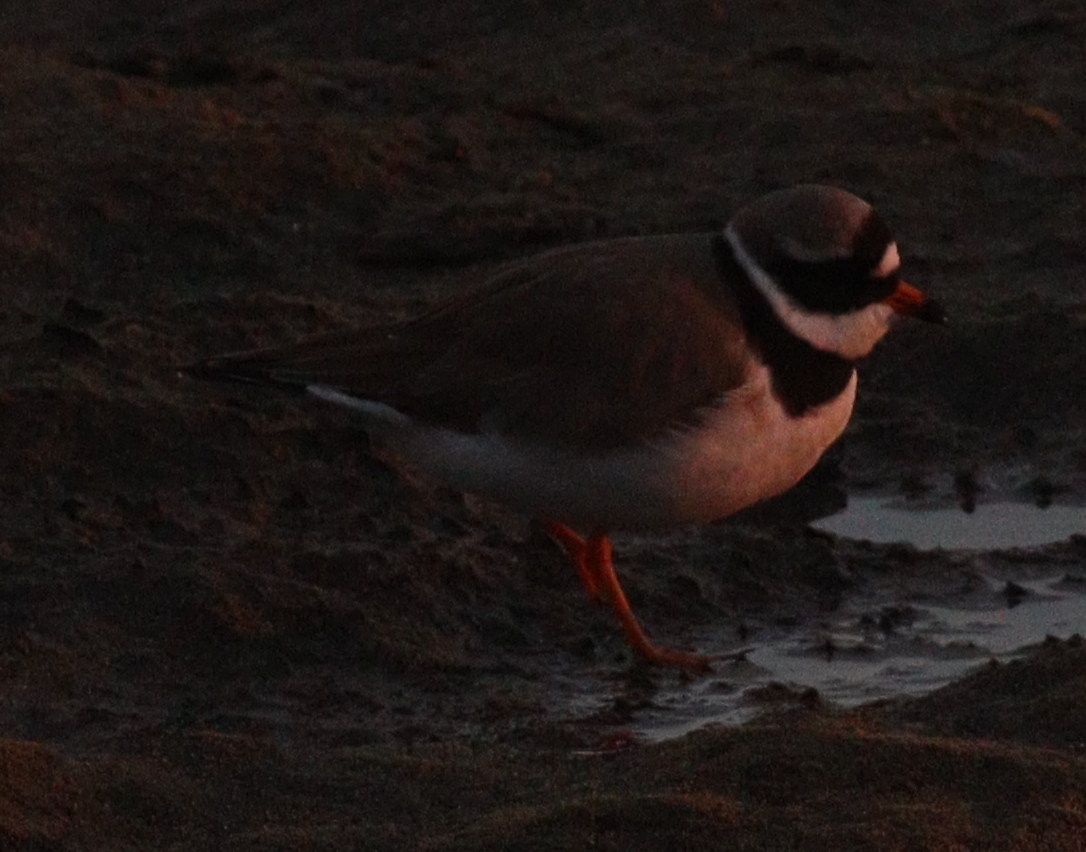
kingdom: Animalia
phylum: Chordata
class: Aves
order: Charadriiformes
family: Charadriidae
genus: Charadrius
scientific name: Charadrius hiaticula
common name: Common ringed plover
